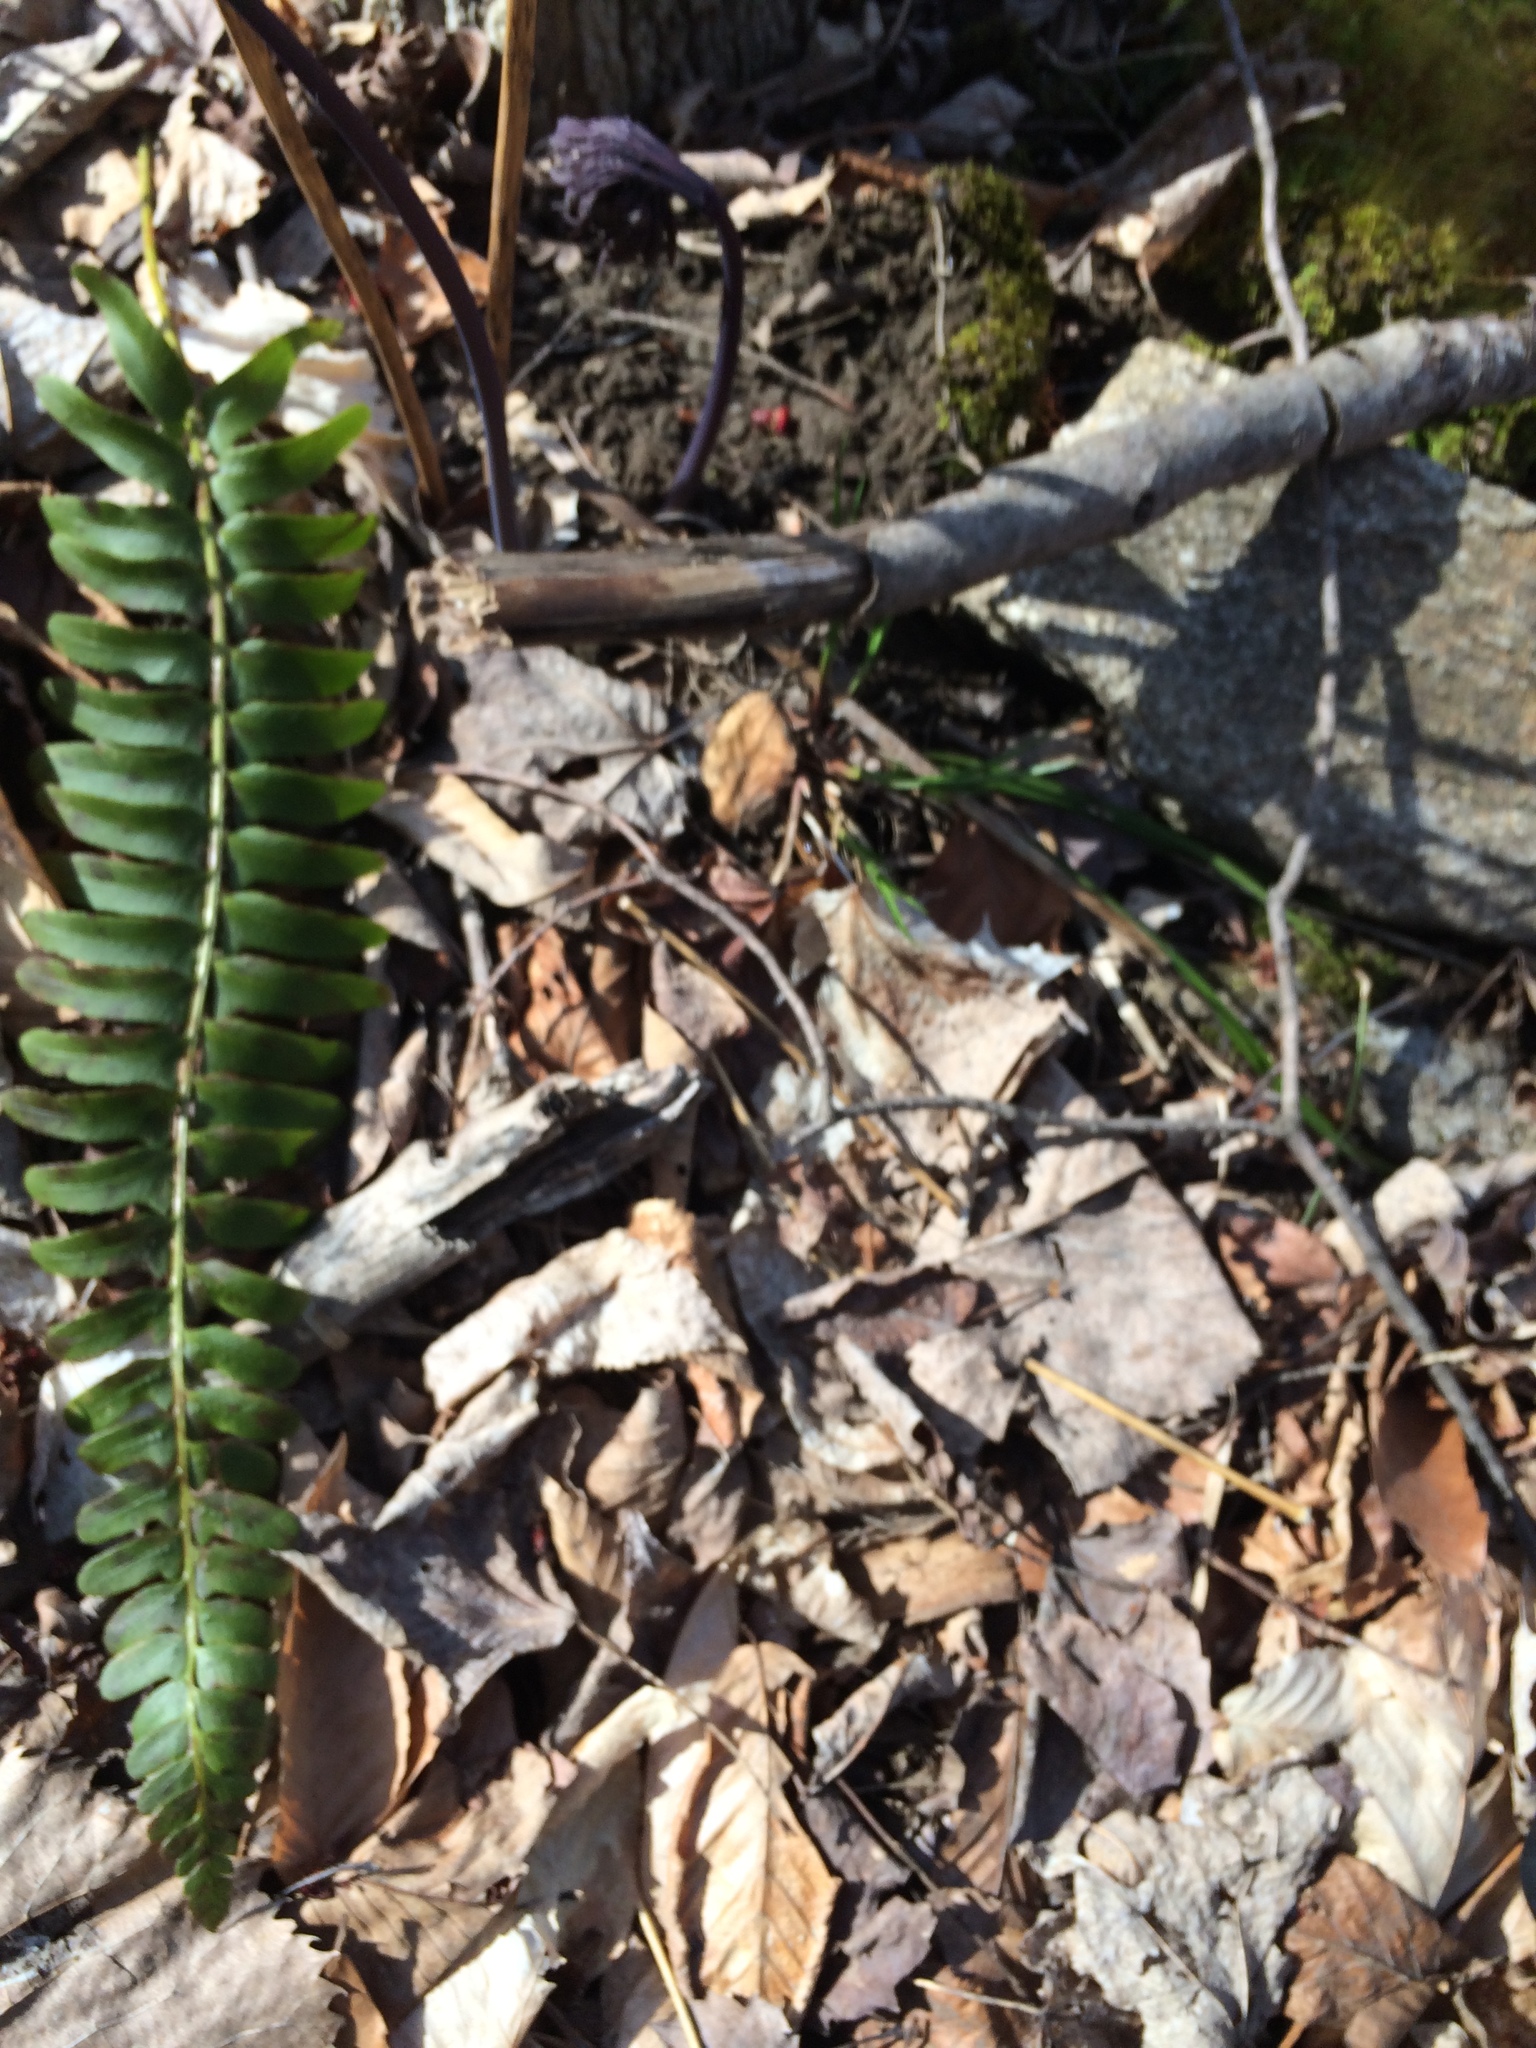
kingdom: Plantae
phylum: Tracheophyta
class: Polypodiopsida
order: Polypodiales
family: Dryopteridaceae
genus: Polystichum
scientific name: Polystichum acrostichoides
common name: Christmas fern
